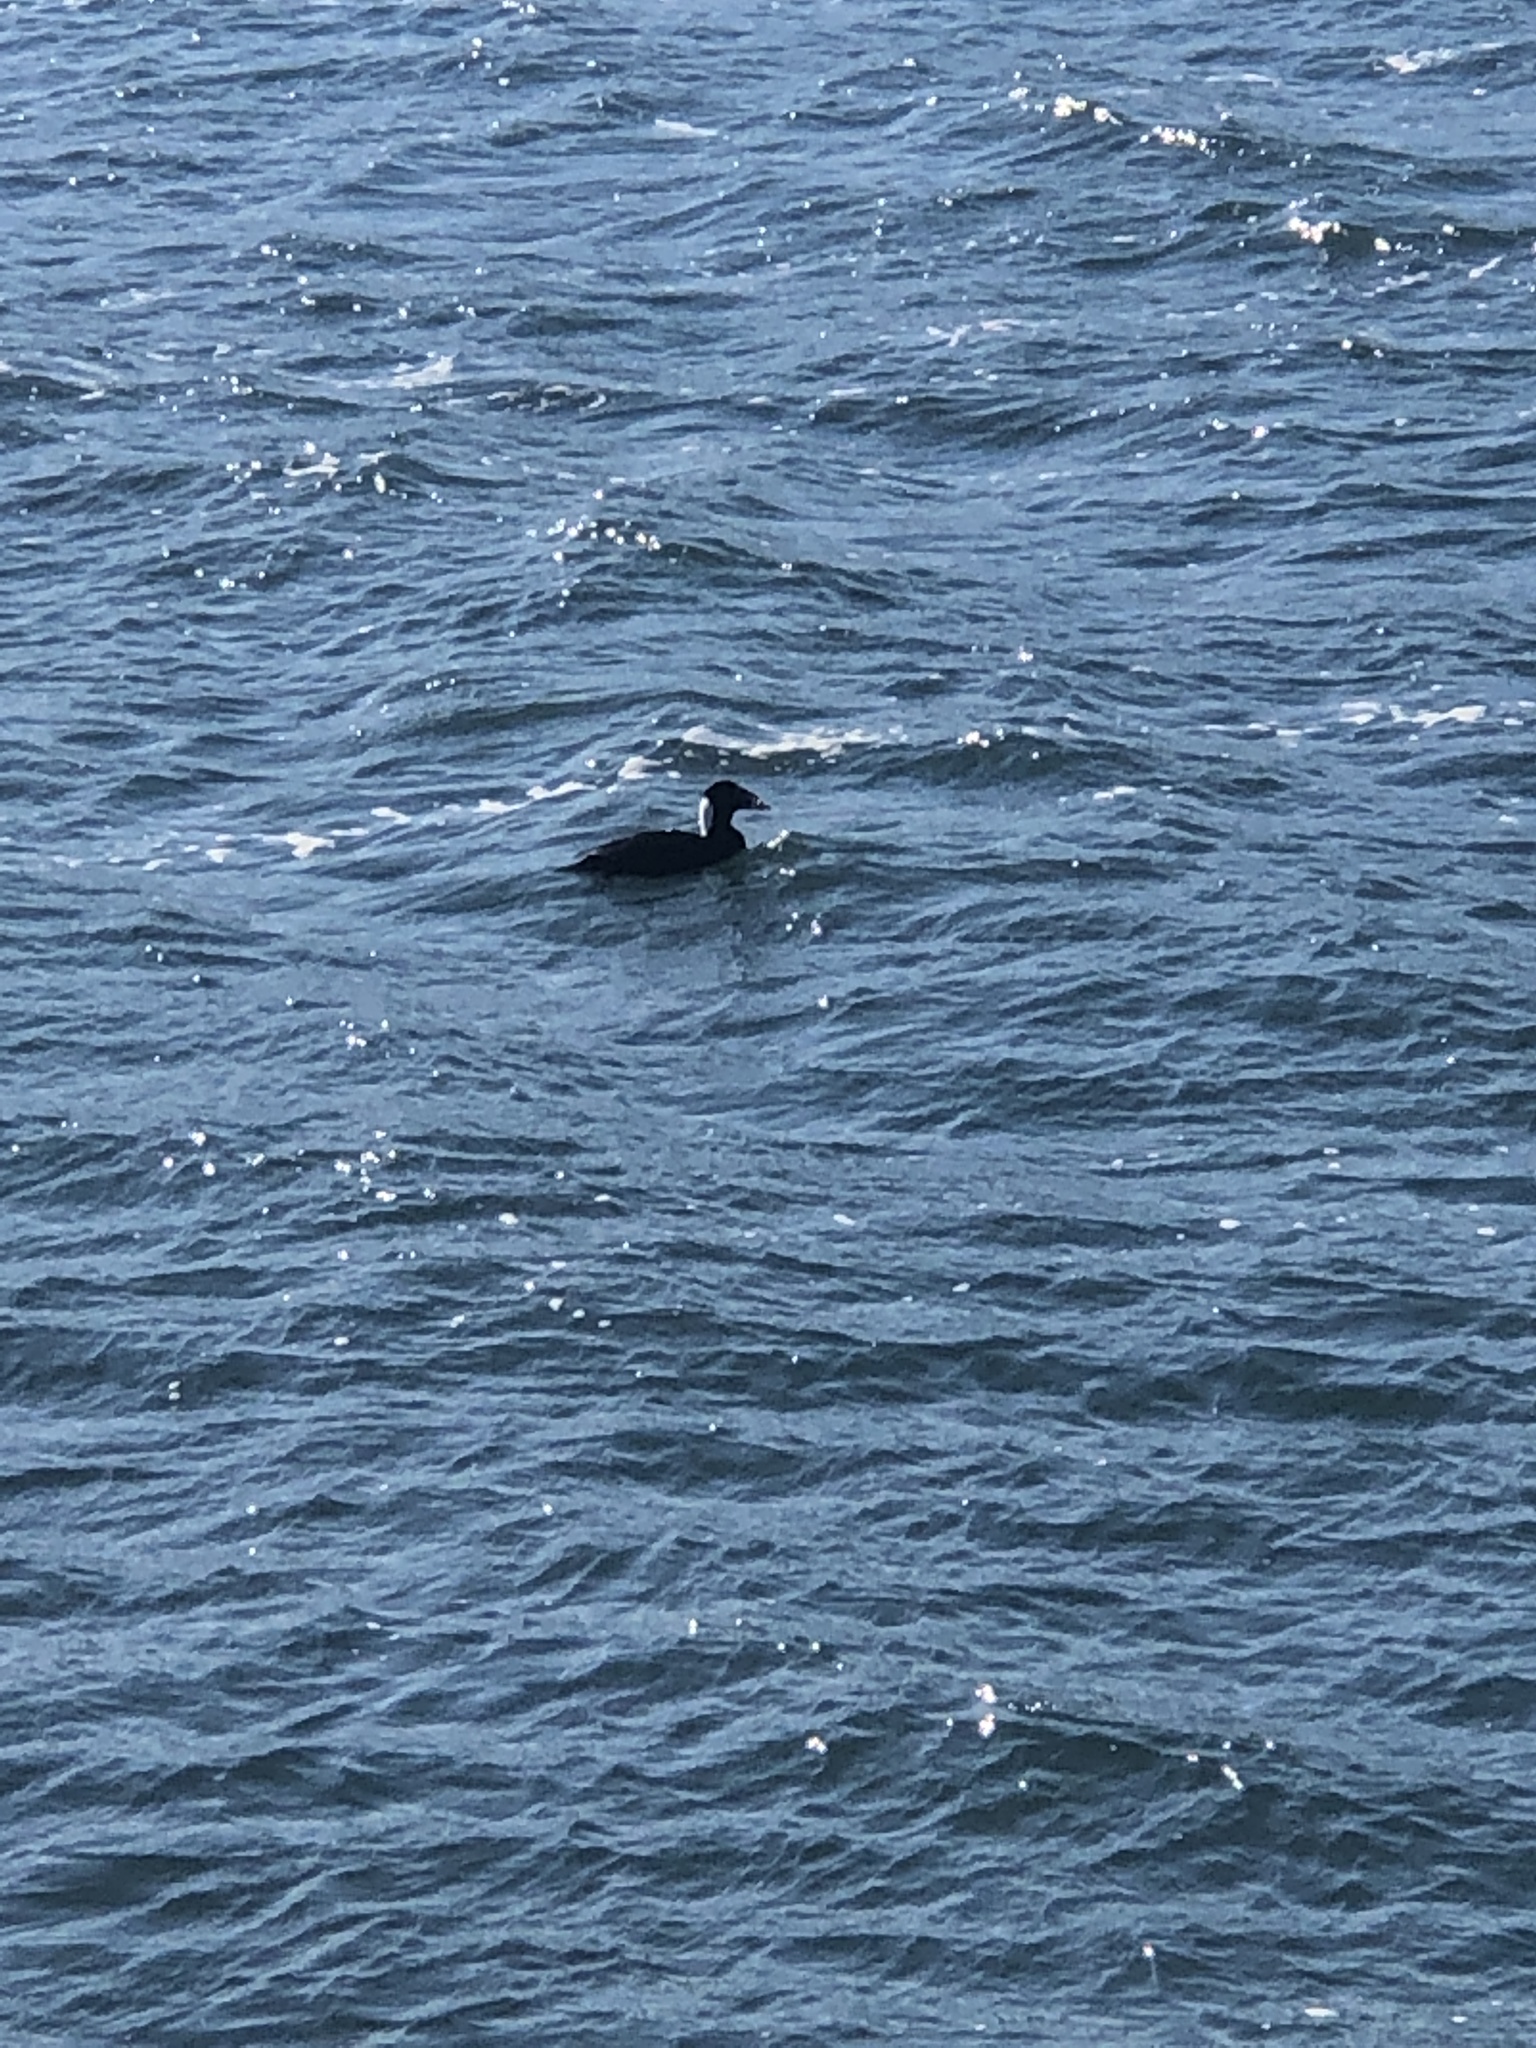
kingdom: Animalia
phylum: Chordata
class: Aves
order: Anseriformes
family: Anatidae
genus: Melanitta
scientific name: Melanitta perspicillata
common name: Surf scoter
